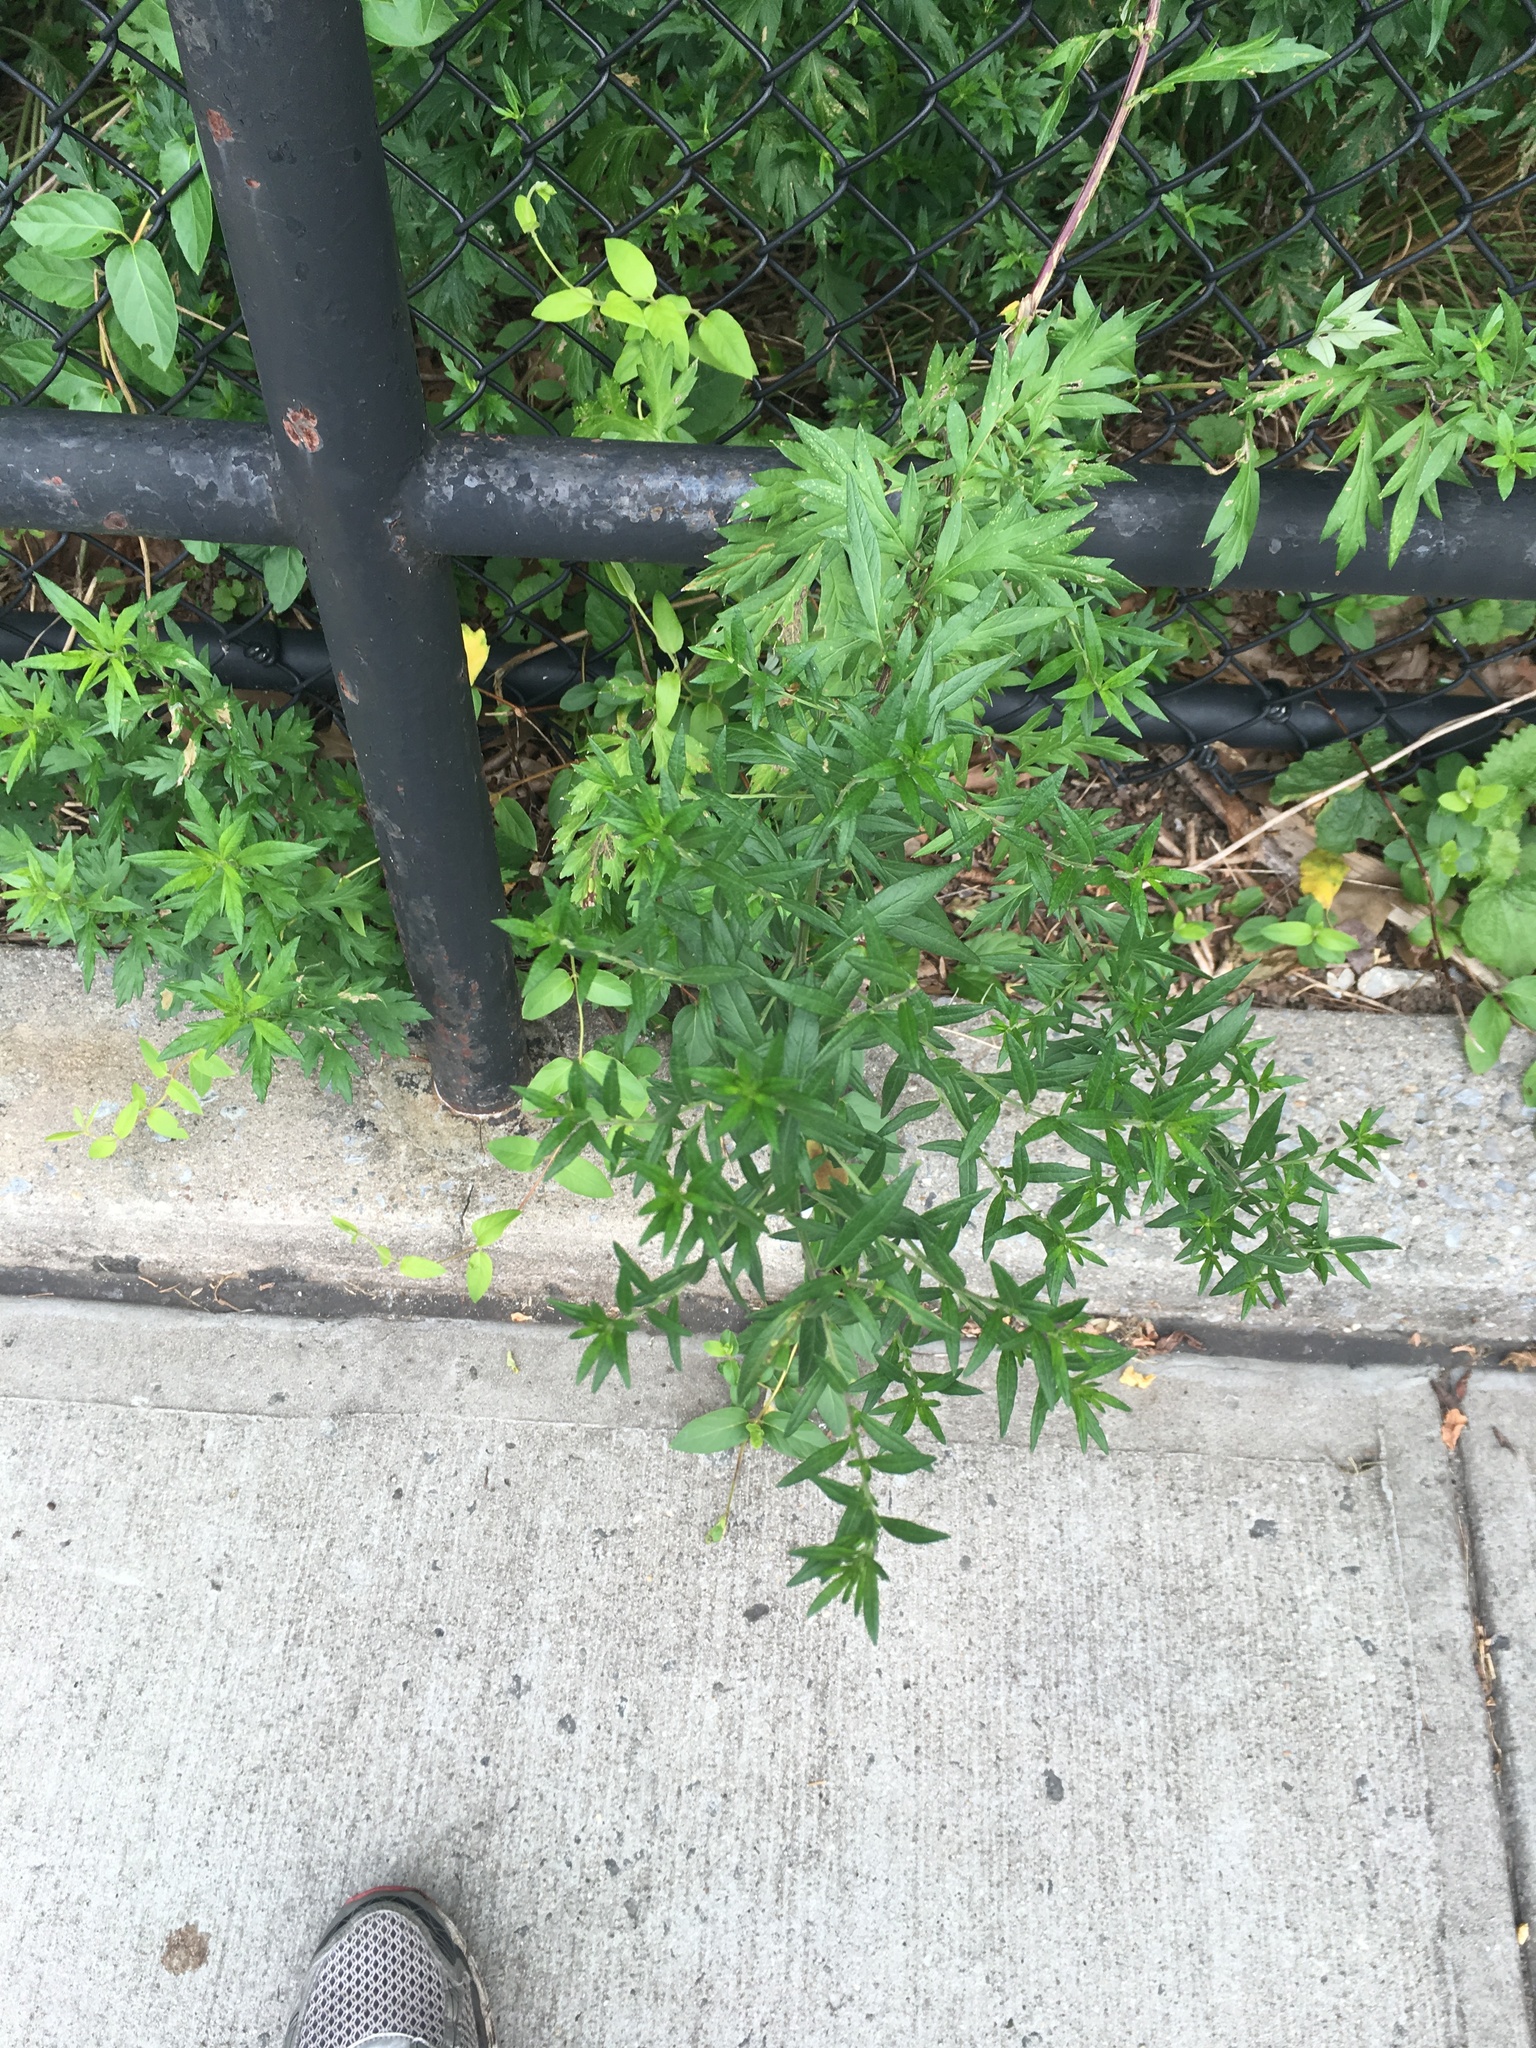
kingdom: Plantae
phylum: Tracheophyta
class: Magnoliopsida
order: Asterales
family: Asteraceae
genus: Artemisia
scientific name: Artemisia vulgaris
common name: Mugwort
